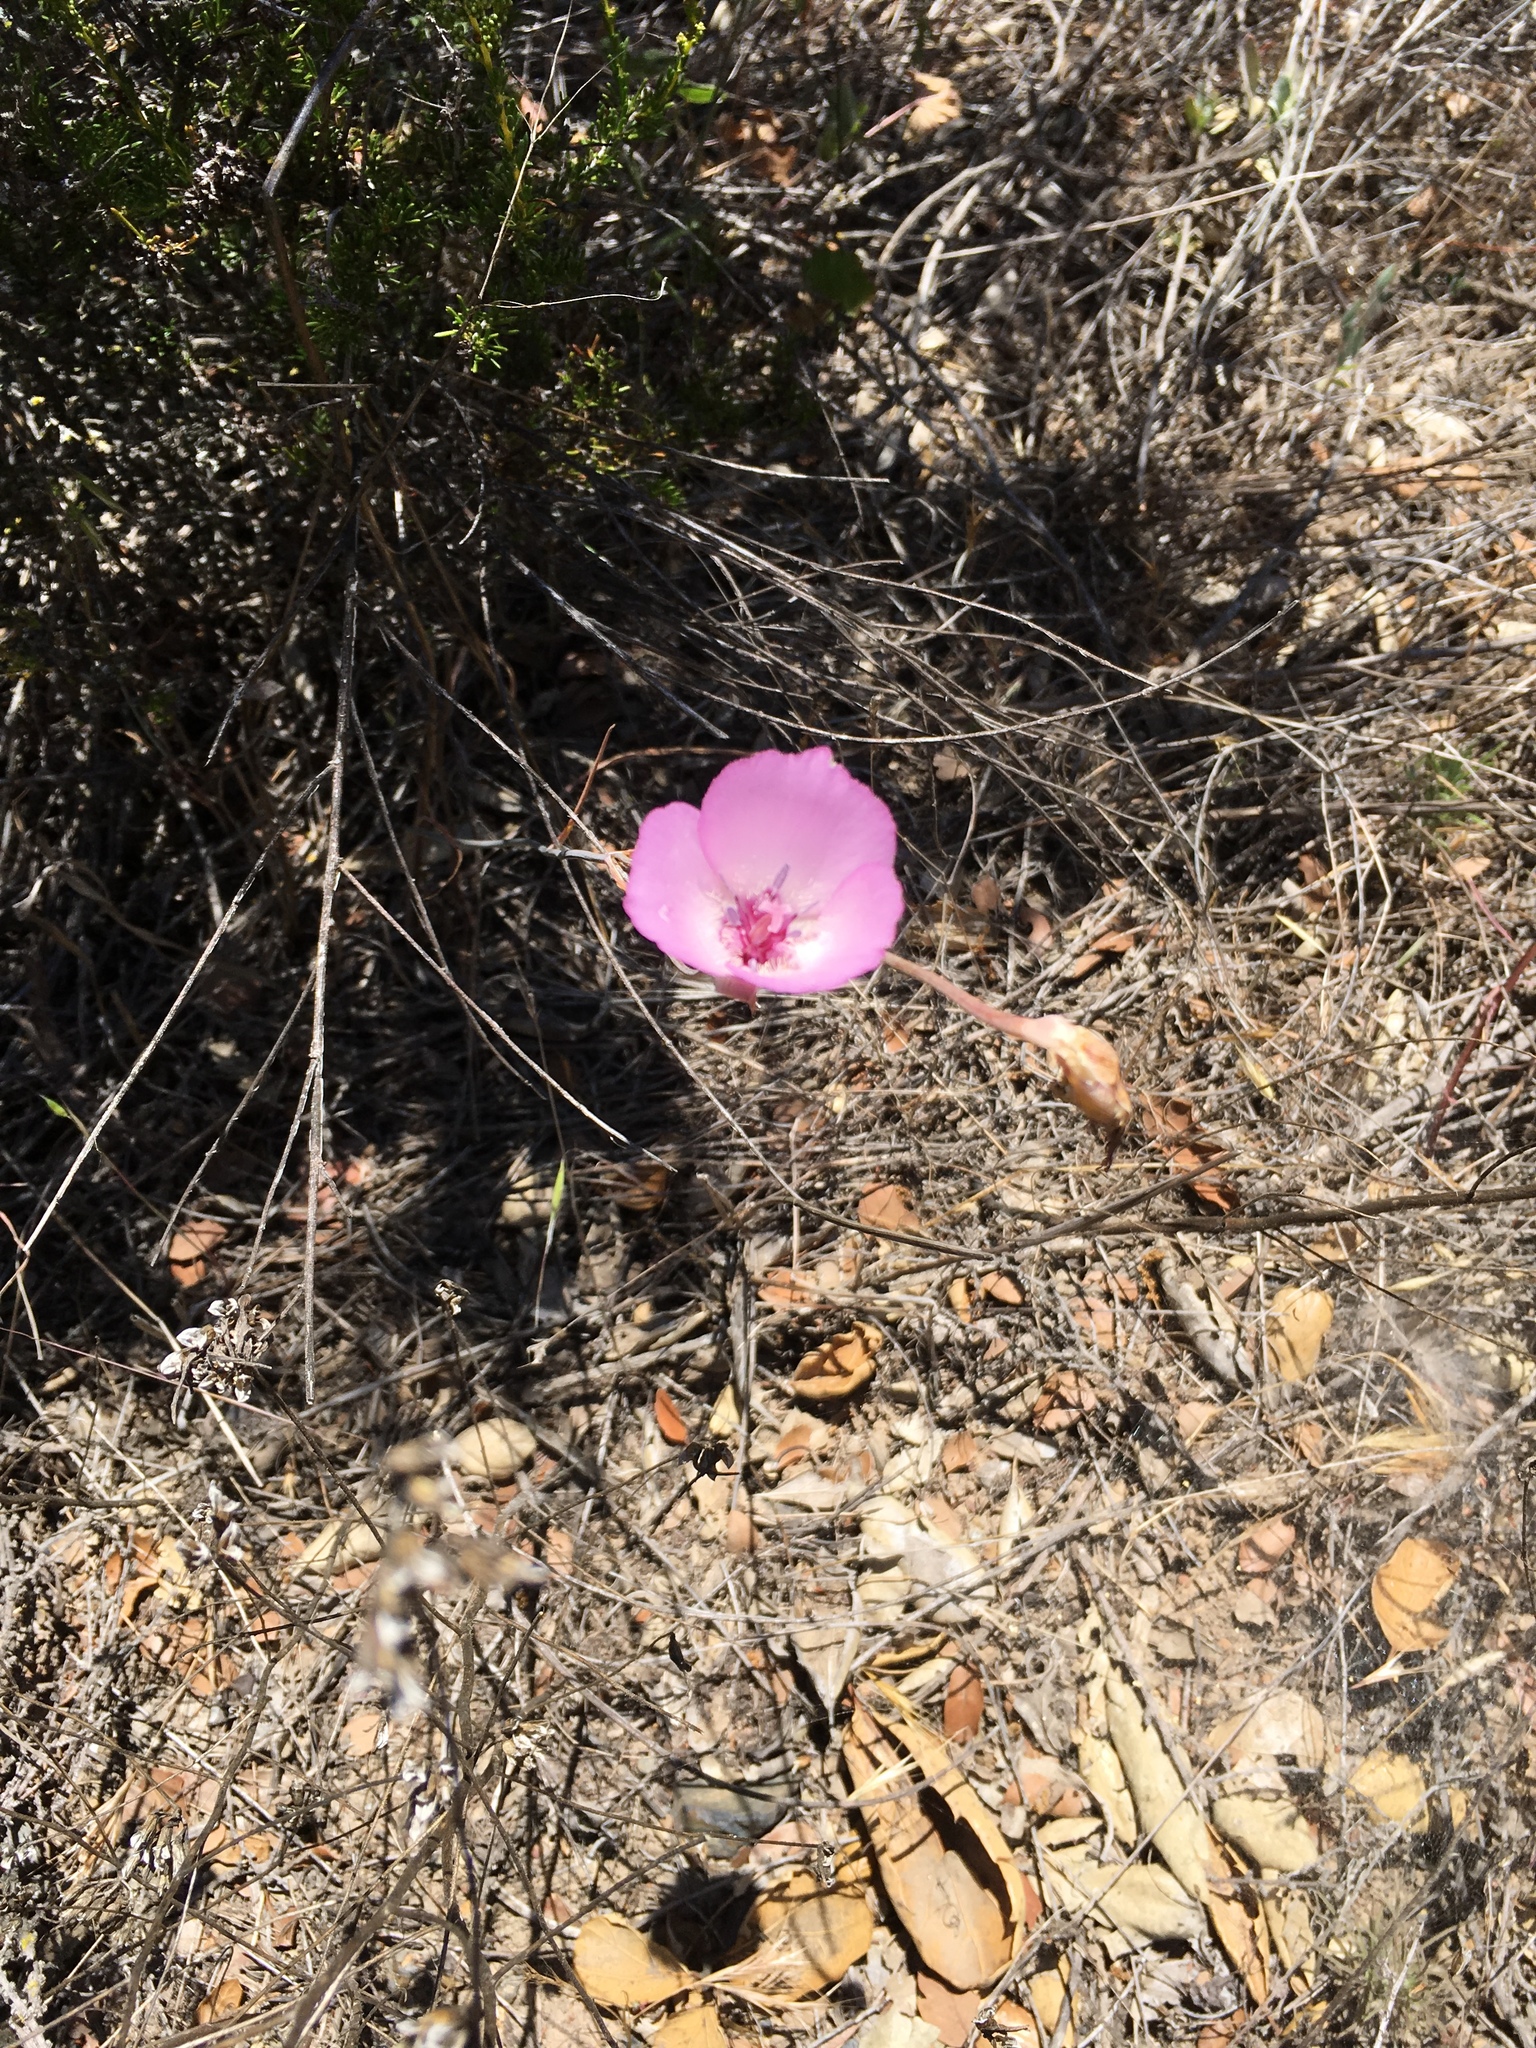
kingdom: Plantae
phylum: Tracheophyta
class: Liliopsida
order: Liliales
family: Liliaceae
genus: Calochortus
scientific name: Calochortus splendens
